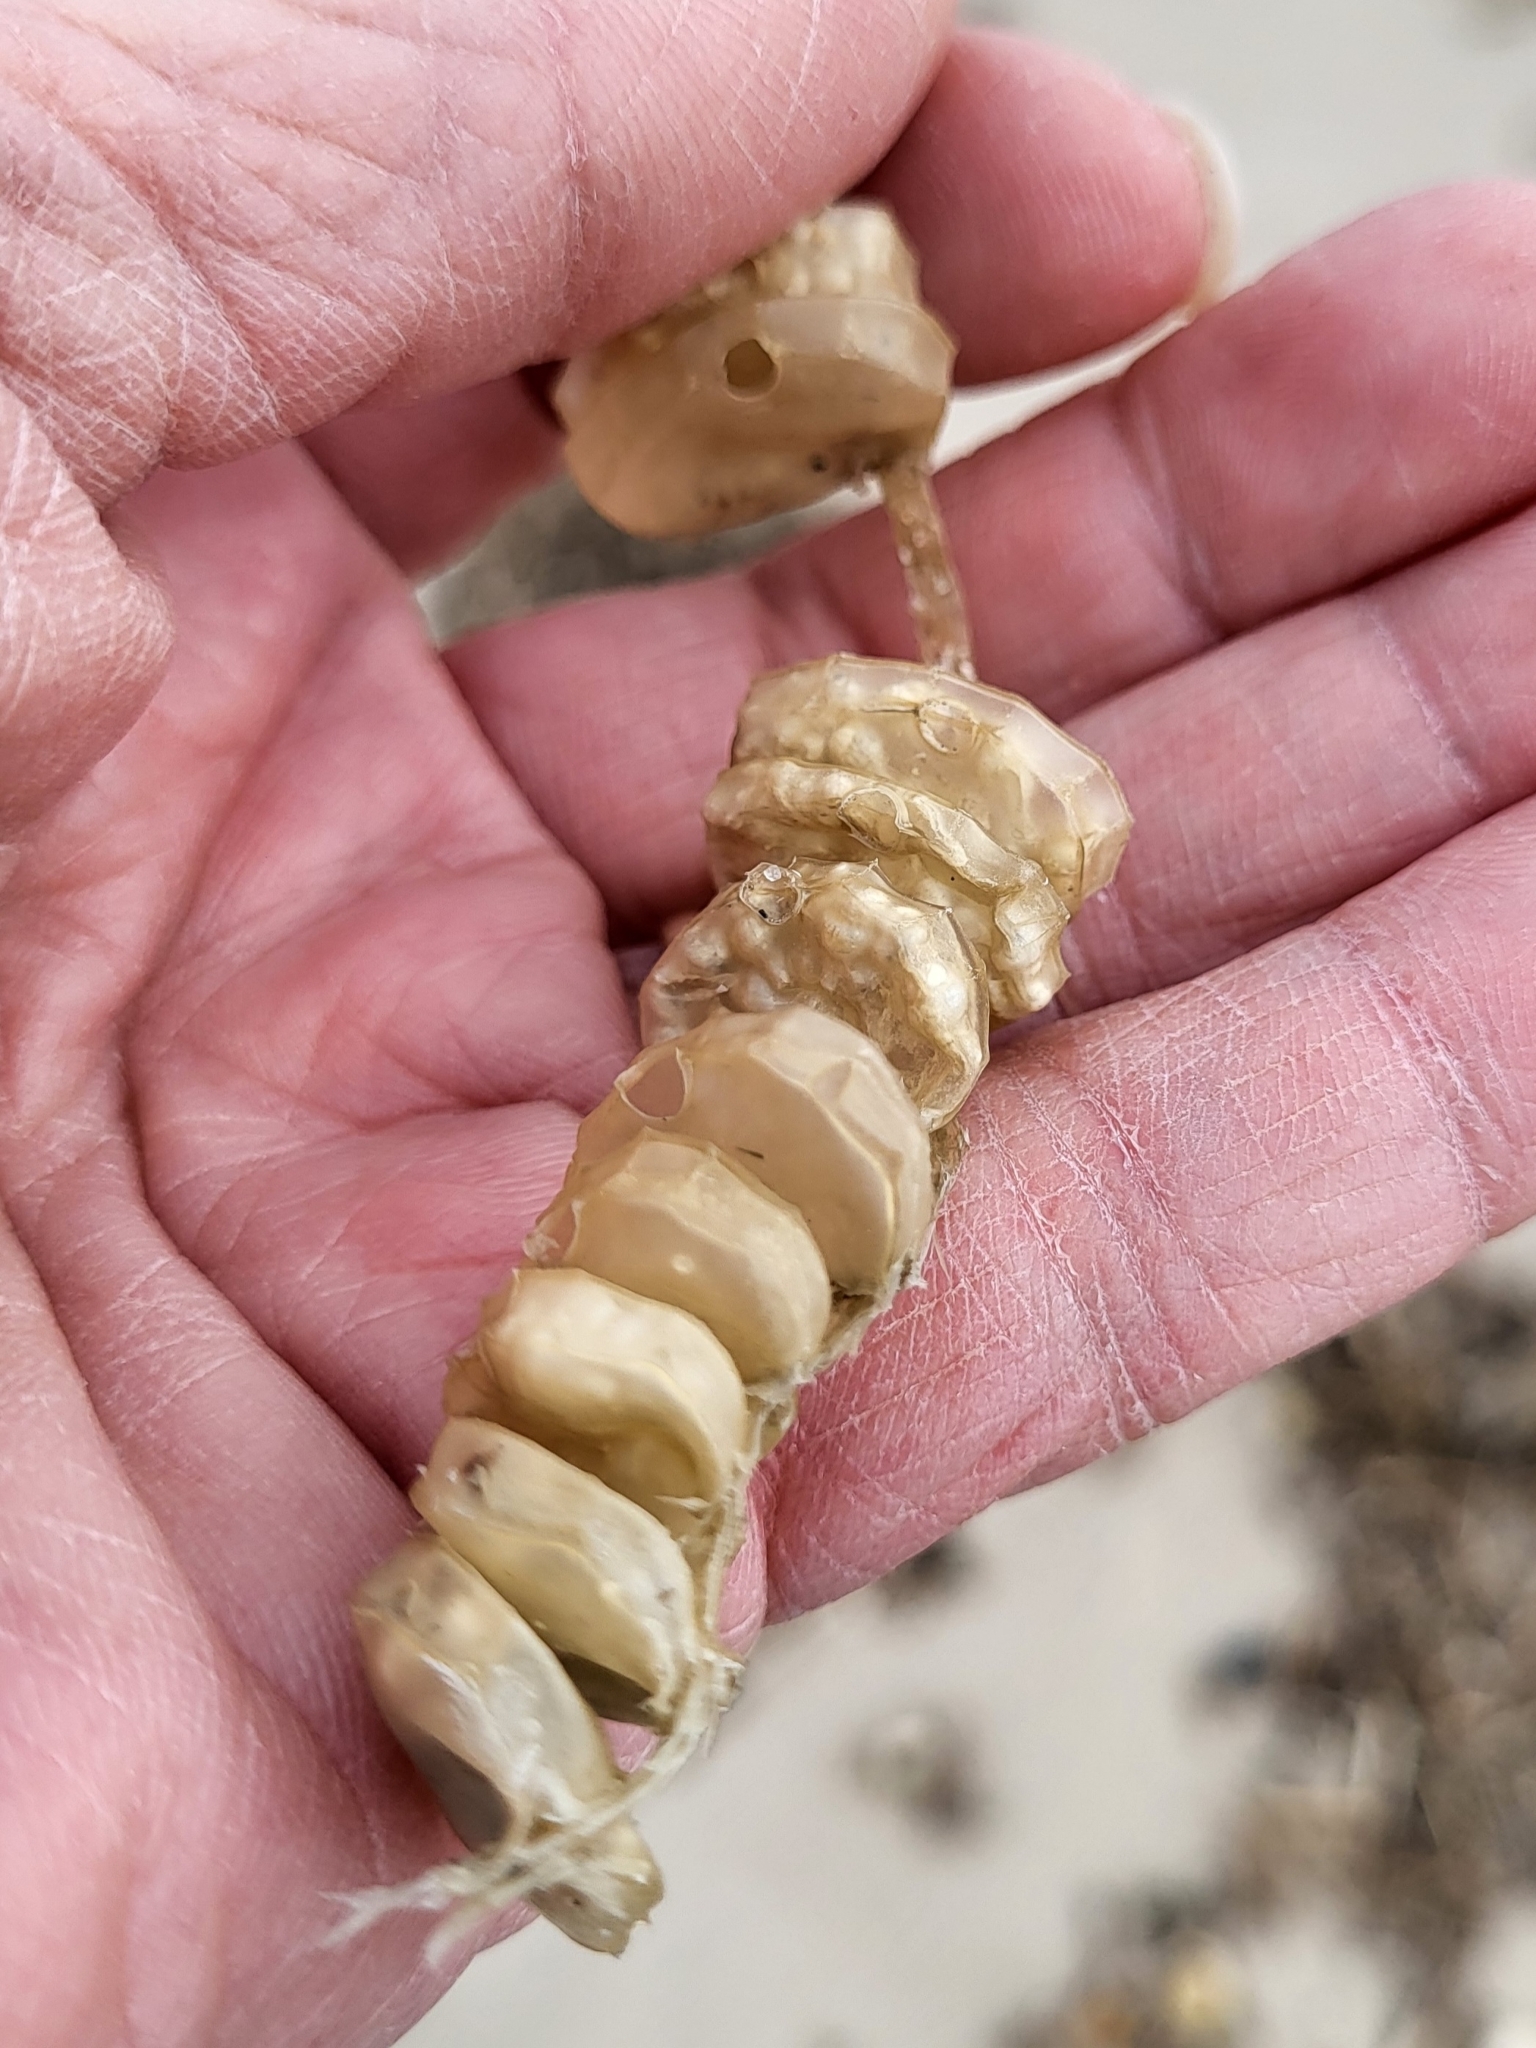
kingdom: Animalia
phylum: Mollusca
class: Gastropoda
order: Neogastropoda
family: Busyconidae
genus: Busycon
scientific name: Busycon carica
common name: Knobbed whelk
